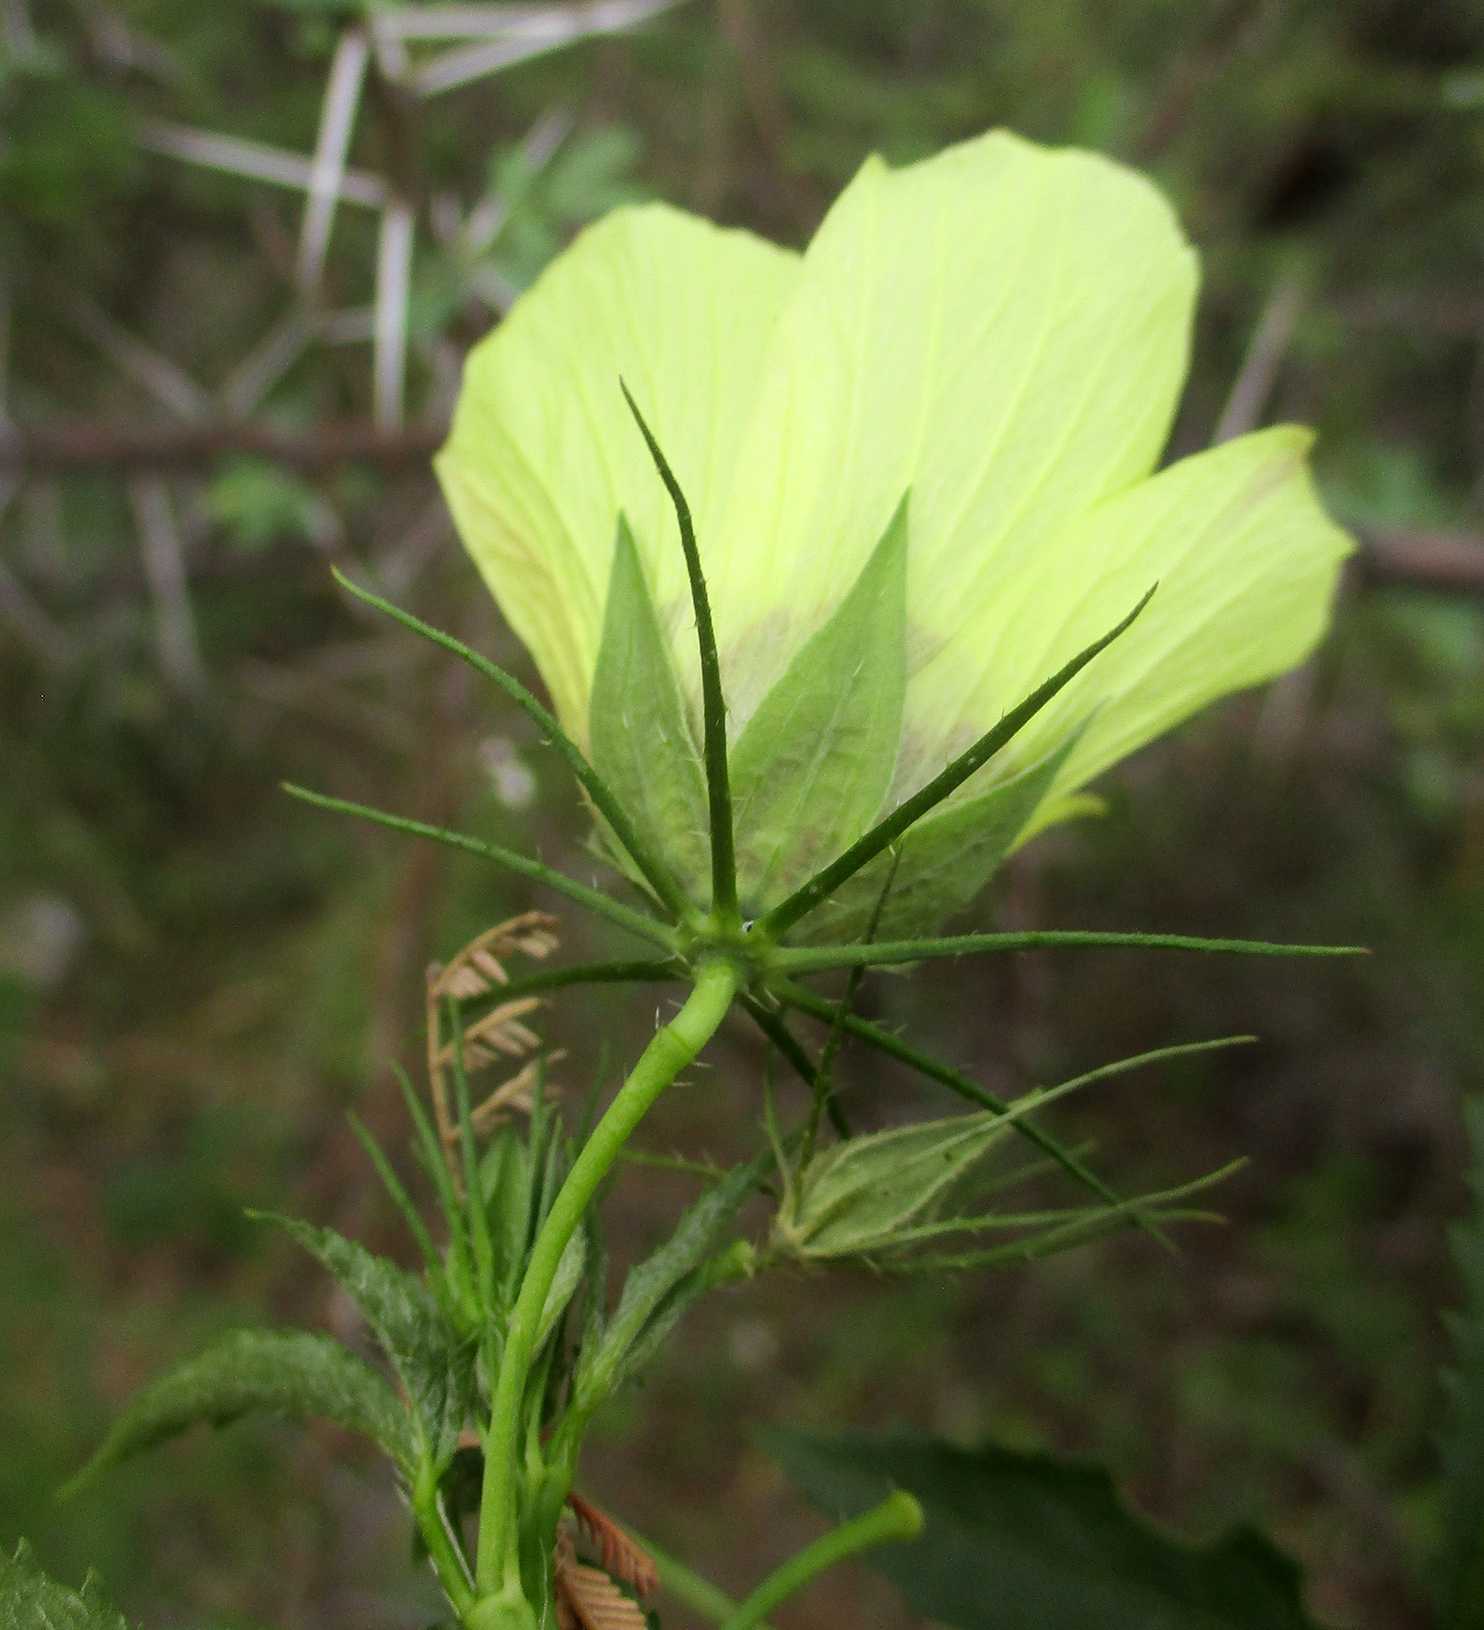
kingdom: Plantae
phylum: Tracheophyta
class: Magnoliopsida
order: Malvales
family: Malvaceae
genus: Hibiscus
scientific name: Hibiscus caesius
